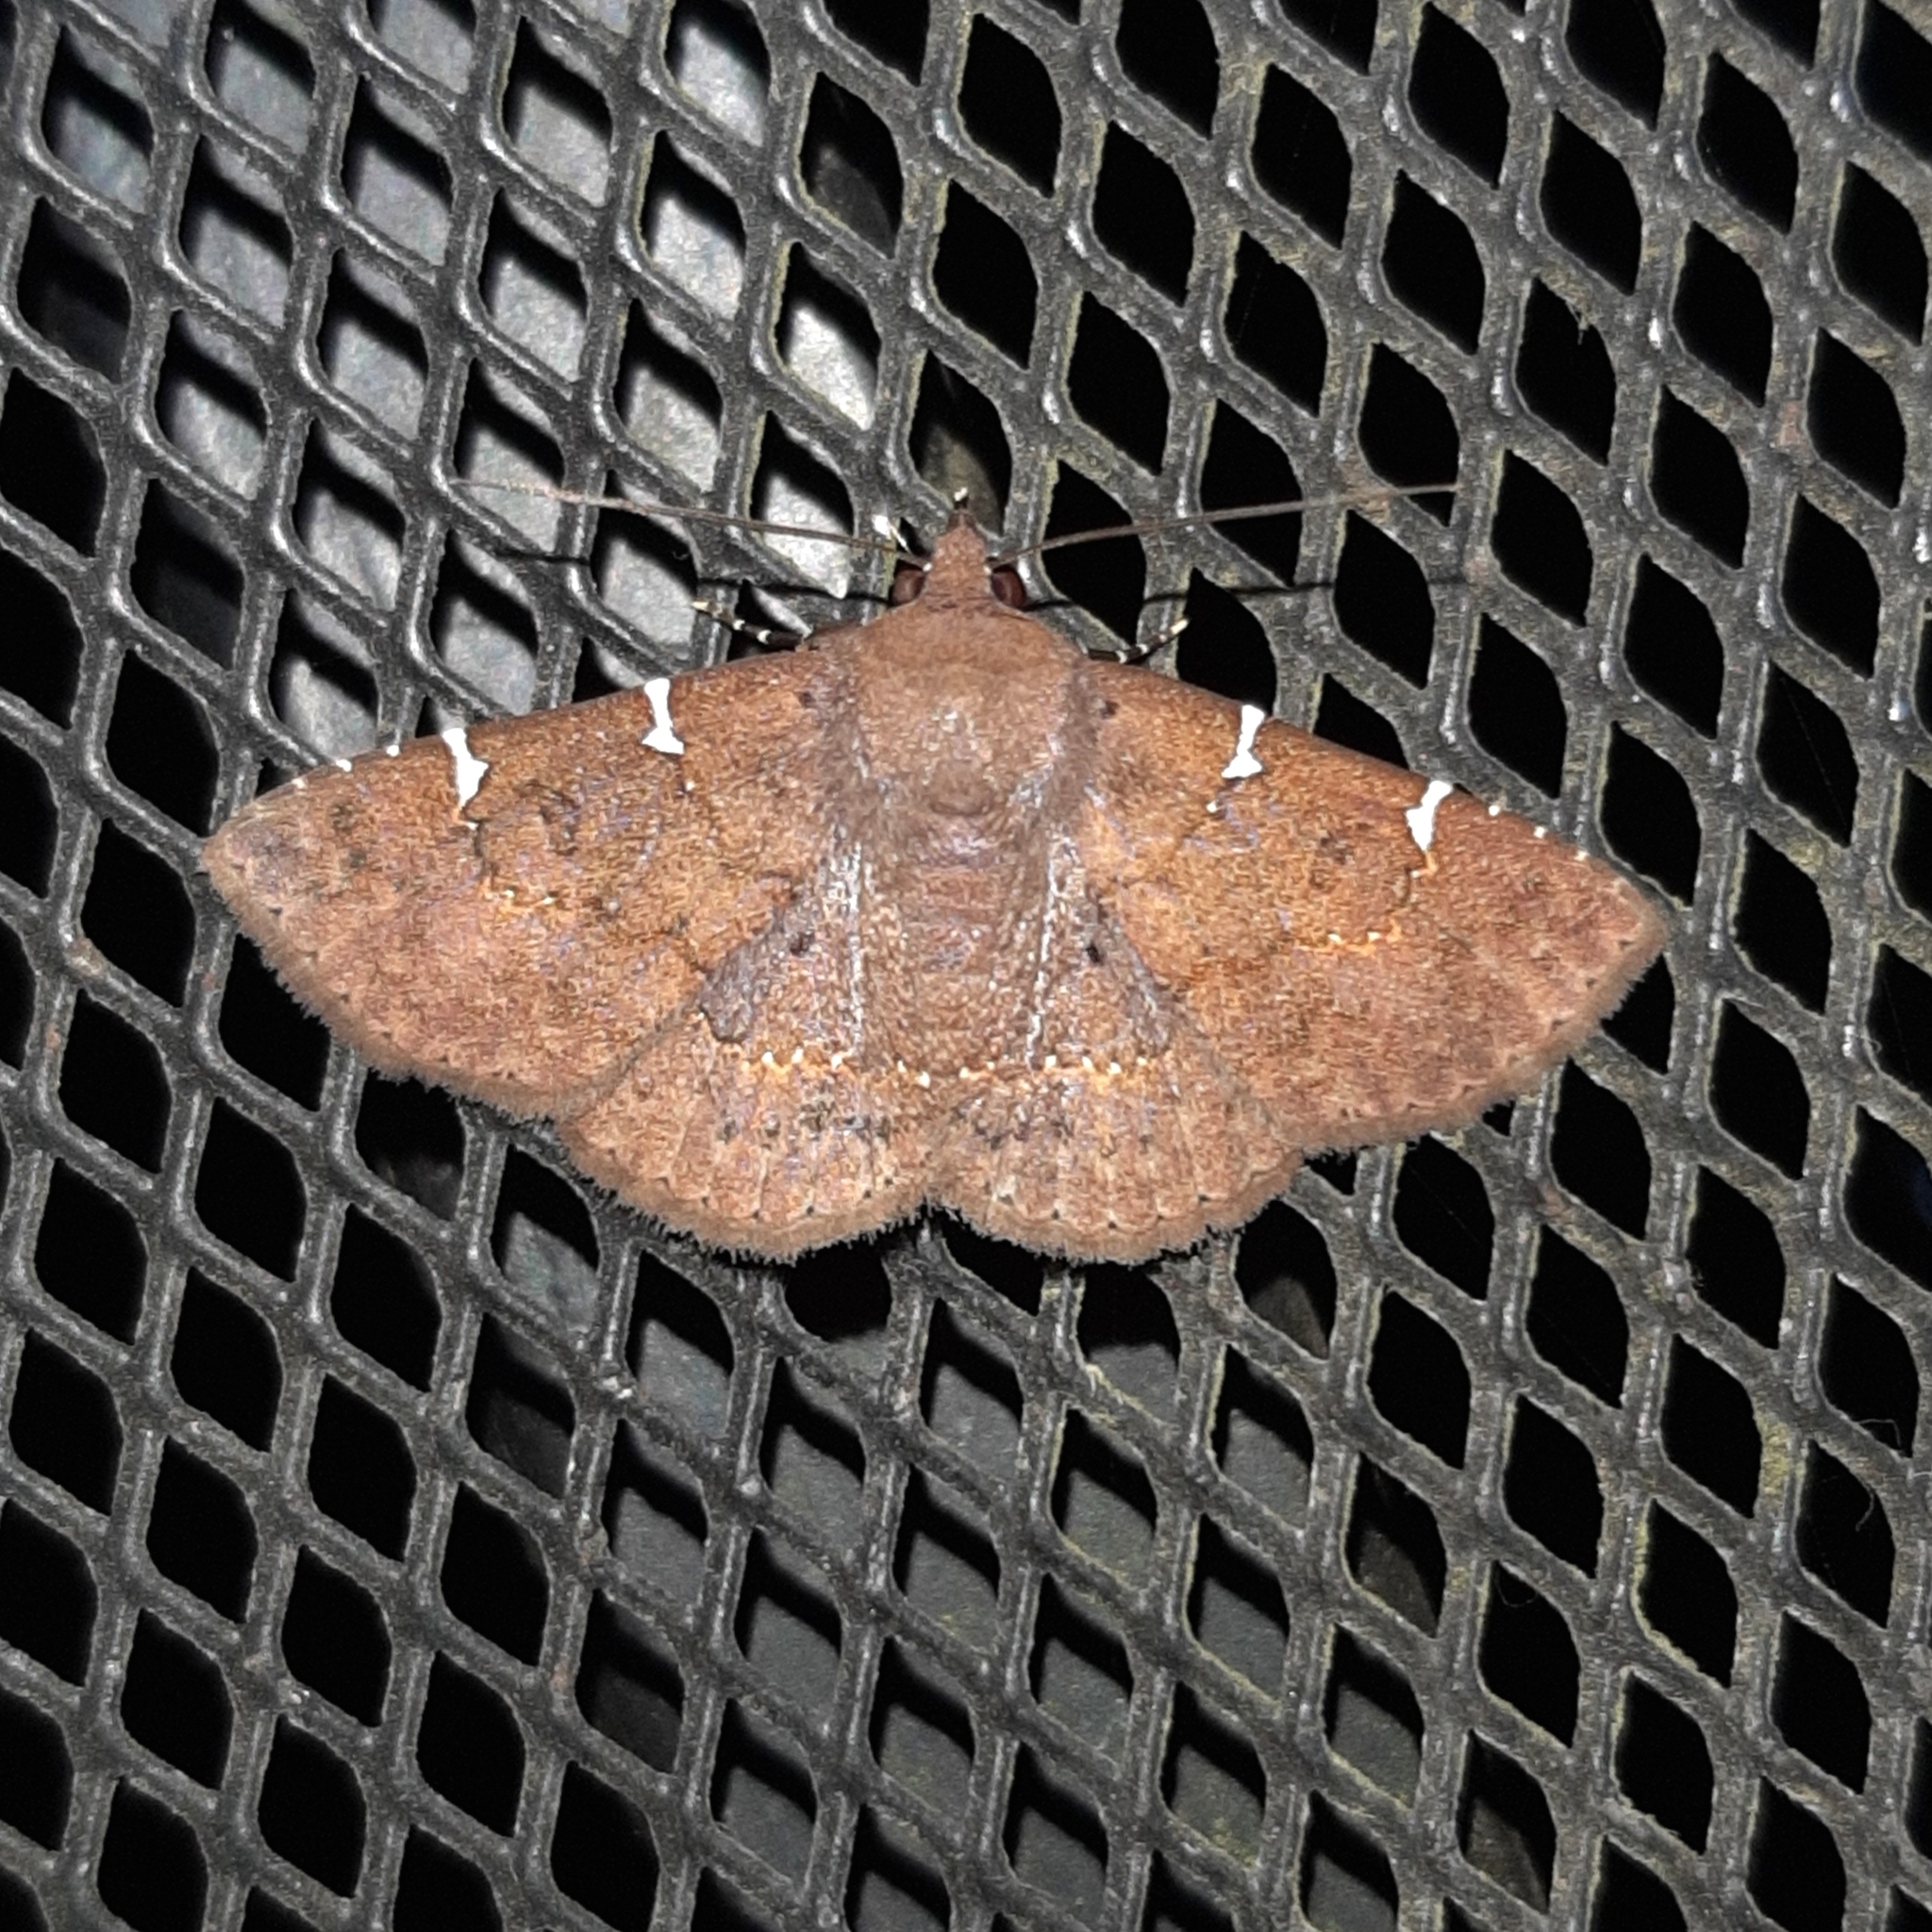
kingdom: Animalia
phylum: Arthropoda
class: Insecta
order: Lepidoptera
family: Erebidae
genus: Antiblemma
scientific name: Antiblemma concinnula
